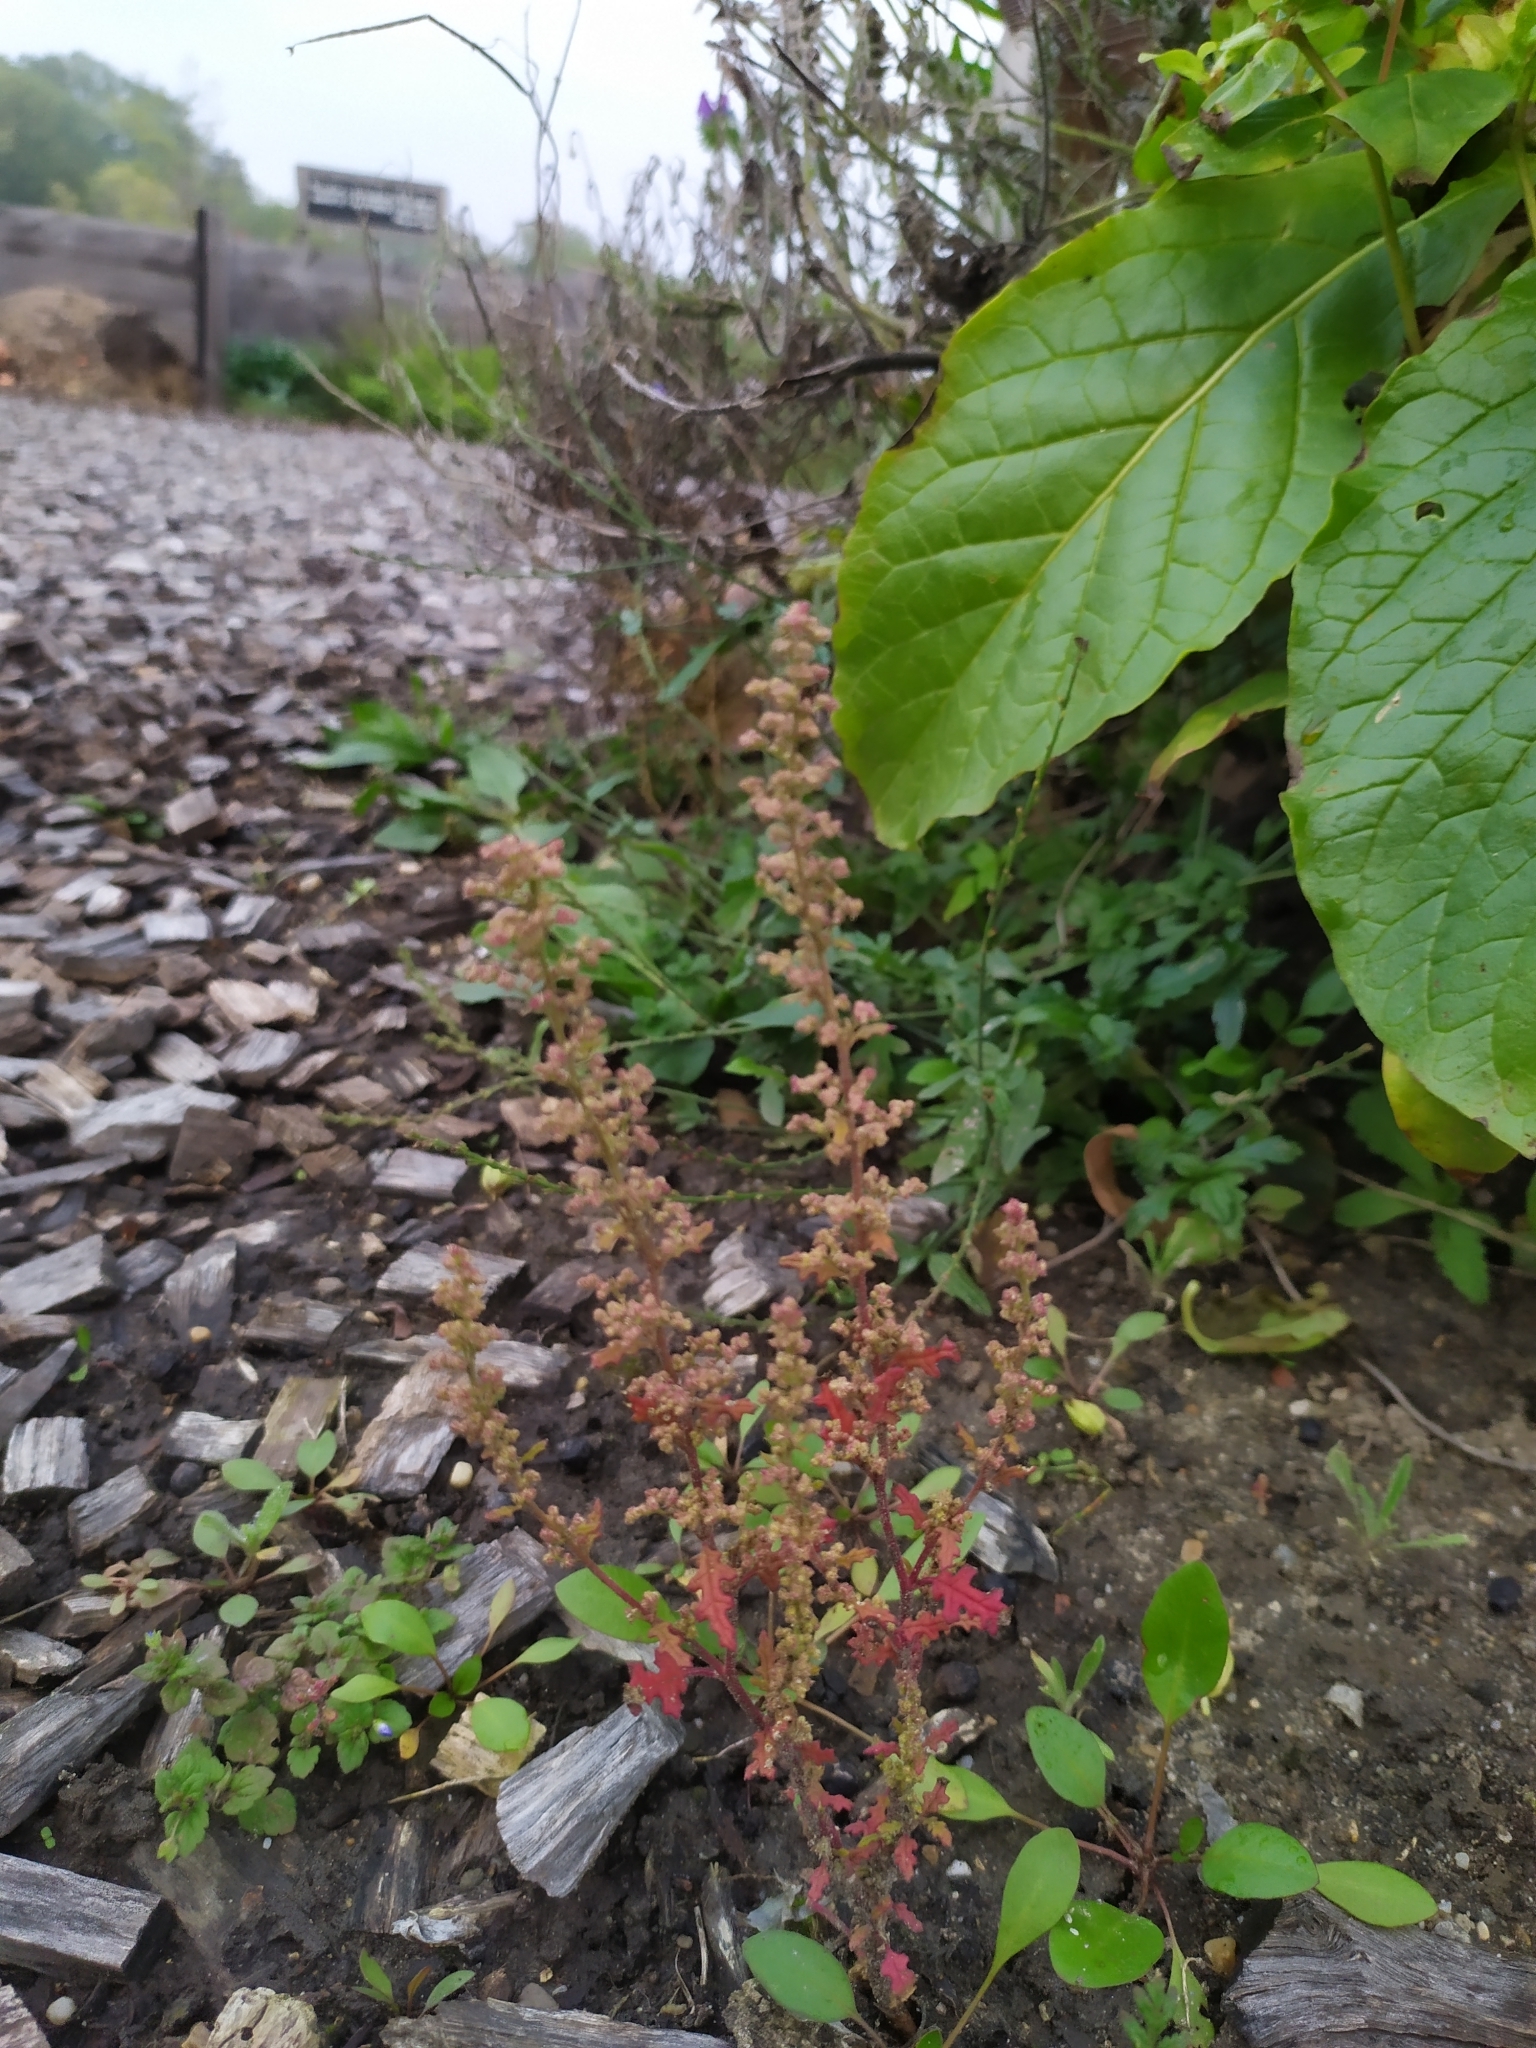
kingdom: Plantae
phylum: Tracheophyta
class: Magnoliopsida
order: Caryophyllales
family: Amaranthaceae
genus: Dysphania
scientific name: Dysphania botrys
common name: Feather-geranium
